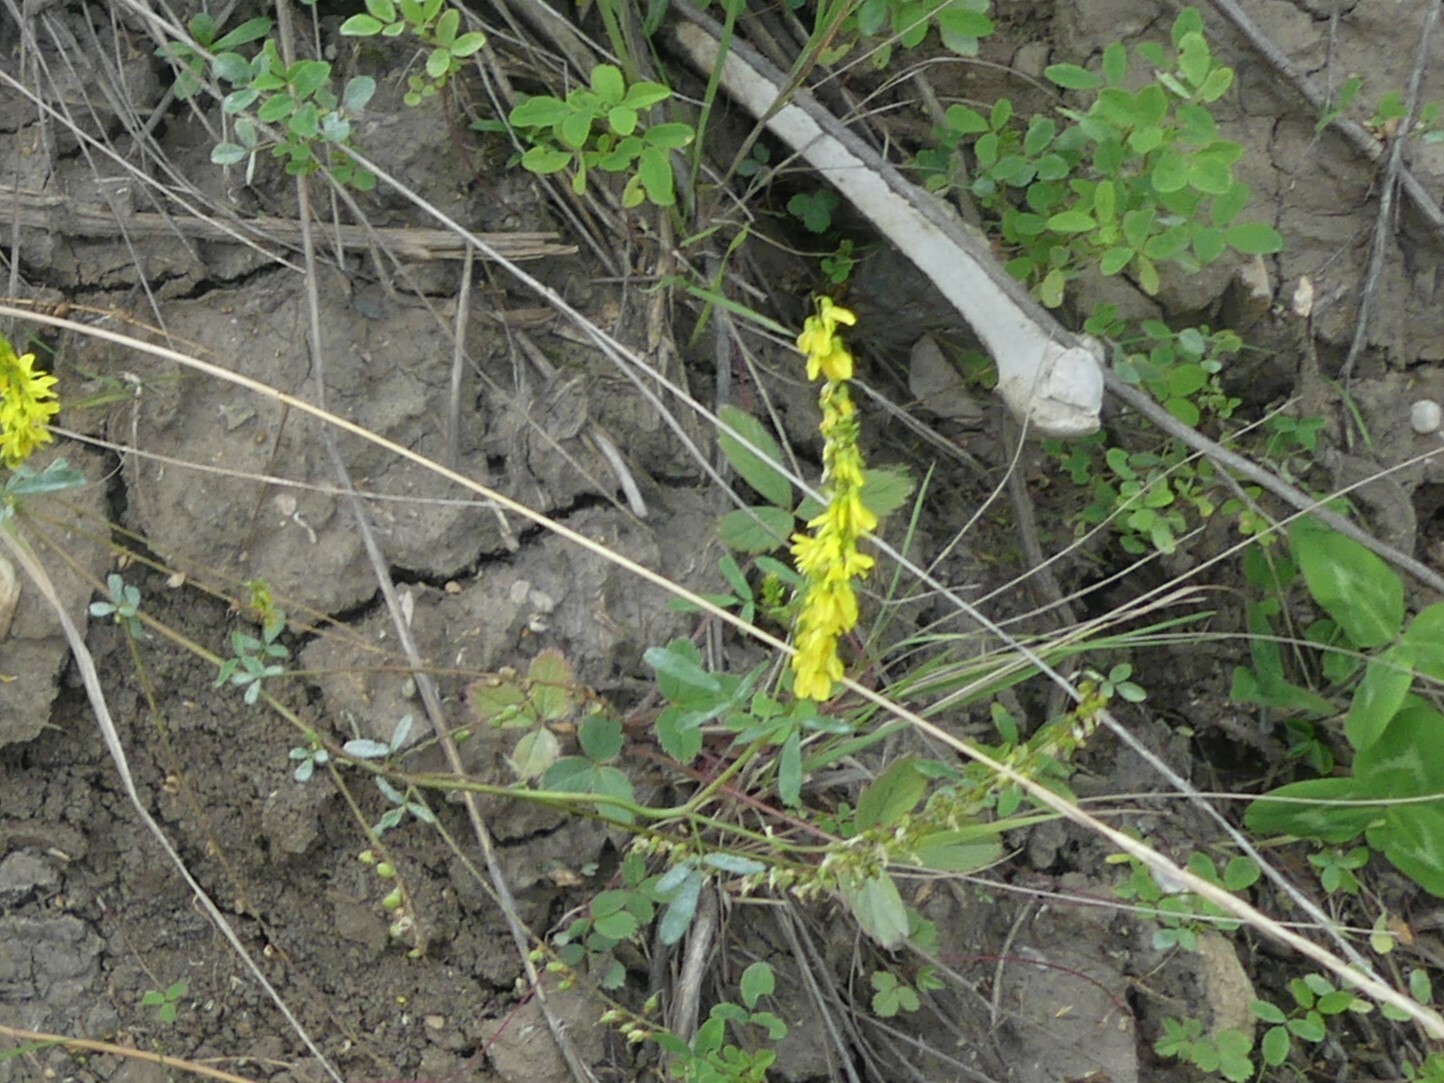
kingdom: Plantae
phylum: Tracheophyta
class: Magnoliopsida
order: Fabales
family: Fabaceae
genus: Melilotus
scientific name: Melilotus officinalis
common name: Sweetclover
